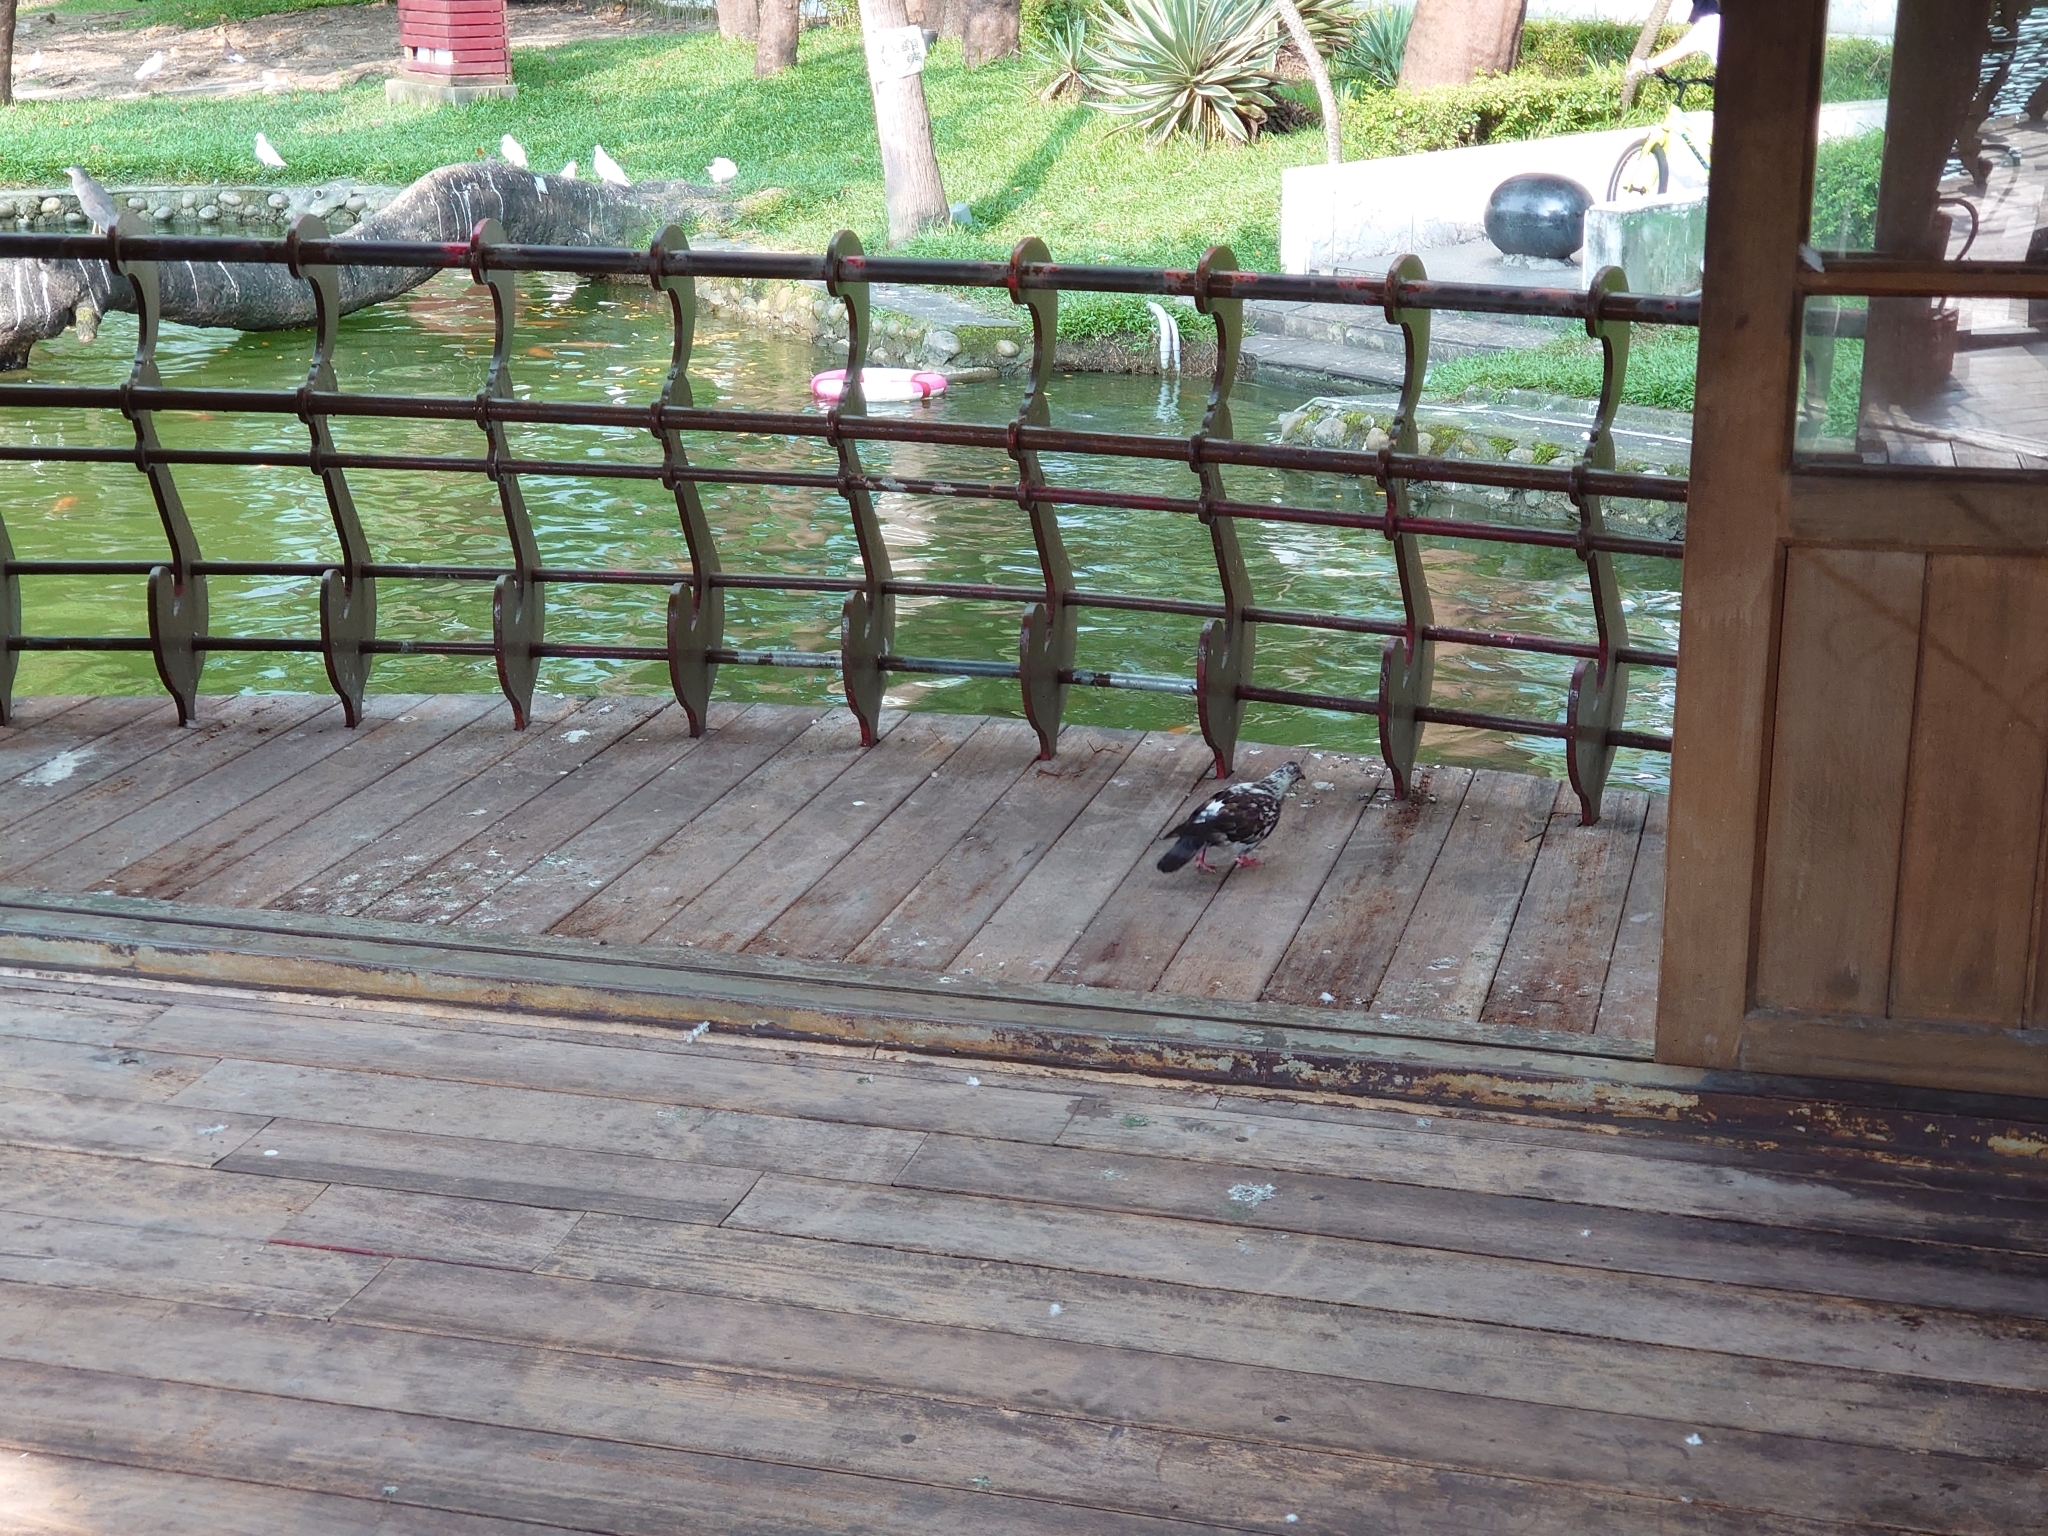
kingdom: Animalia
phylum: Chordata
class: Aves
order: Columbiformes
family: Columbidae
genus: Columba
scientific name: Columba livia
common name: Rock pigeon
